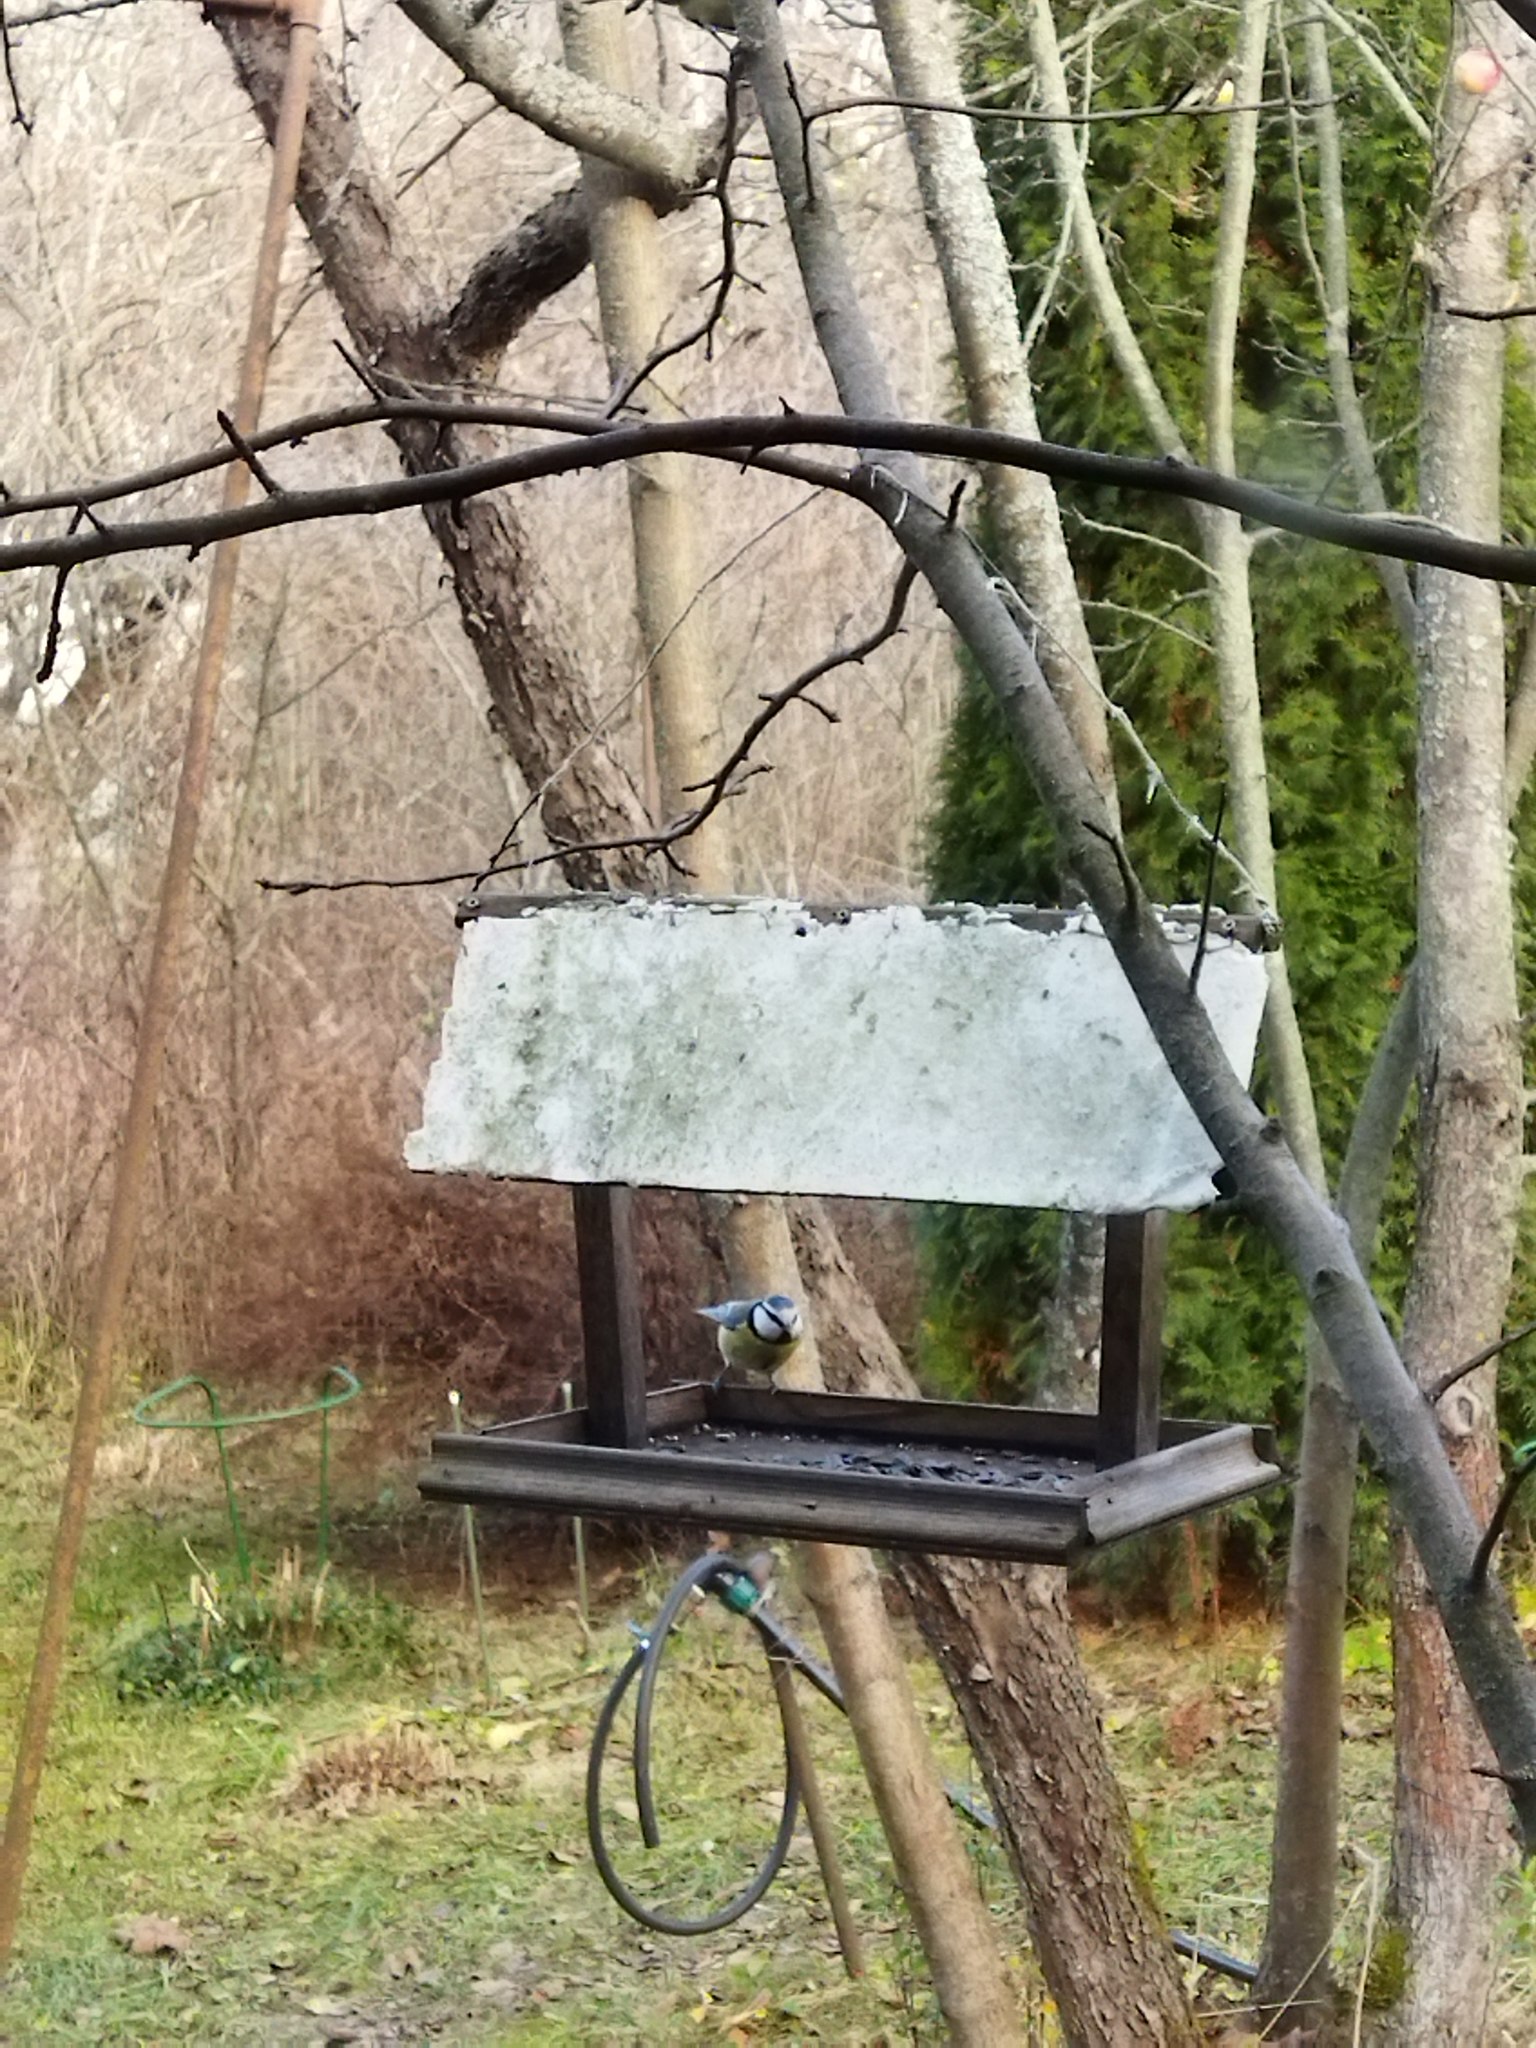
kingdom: Animalia
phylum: Chordata
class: Aves
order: Passeriformes
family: Paridae
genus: Cyanistes
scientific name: Cyanistes caeruleus
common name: Eurasian blue tit
